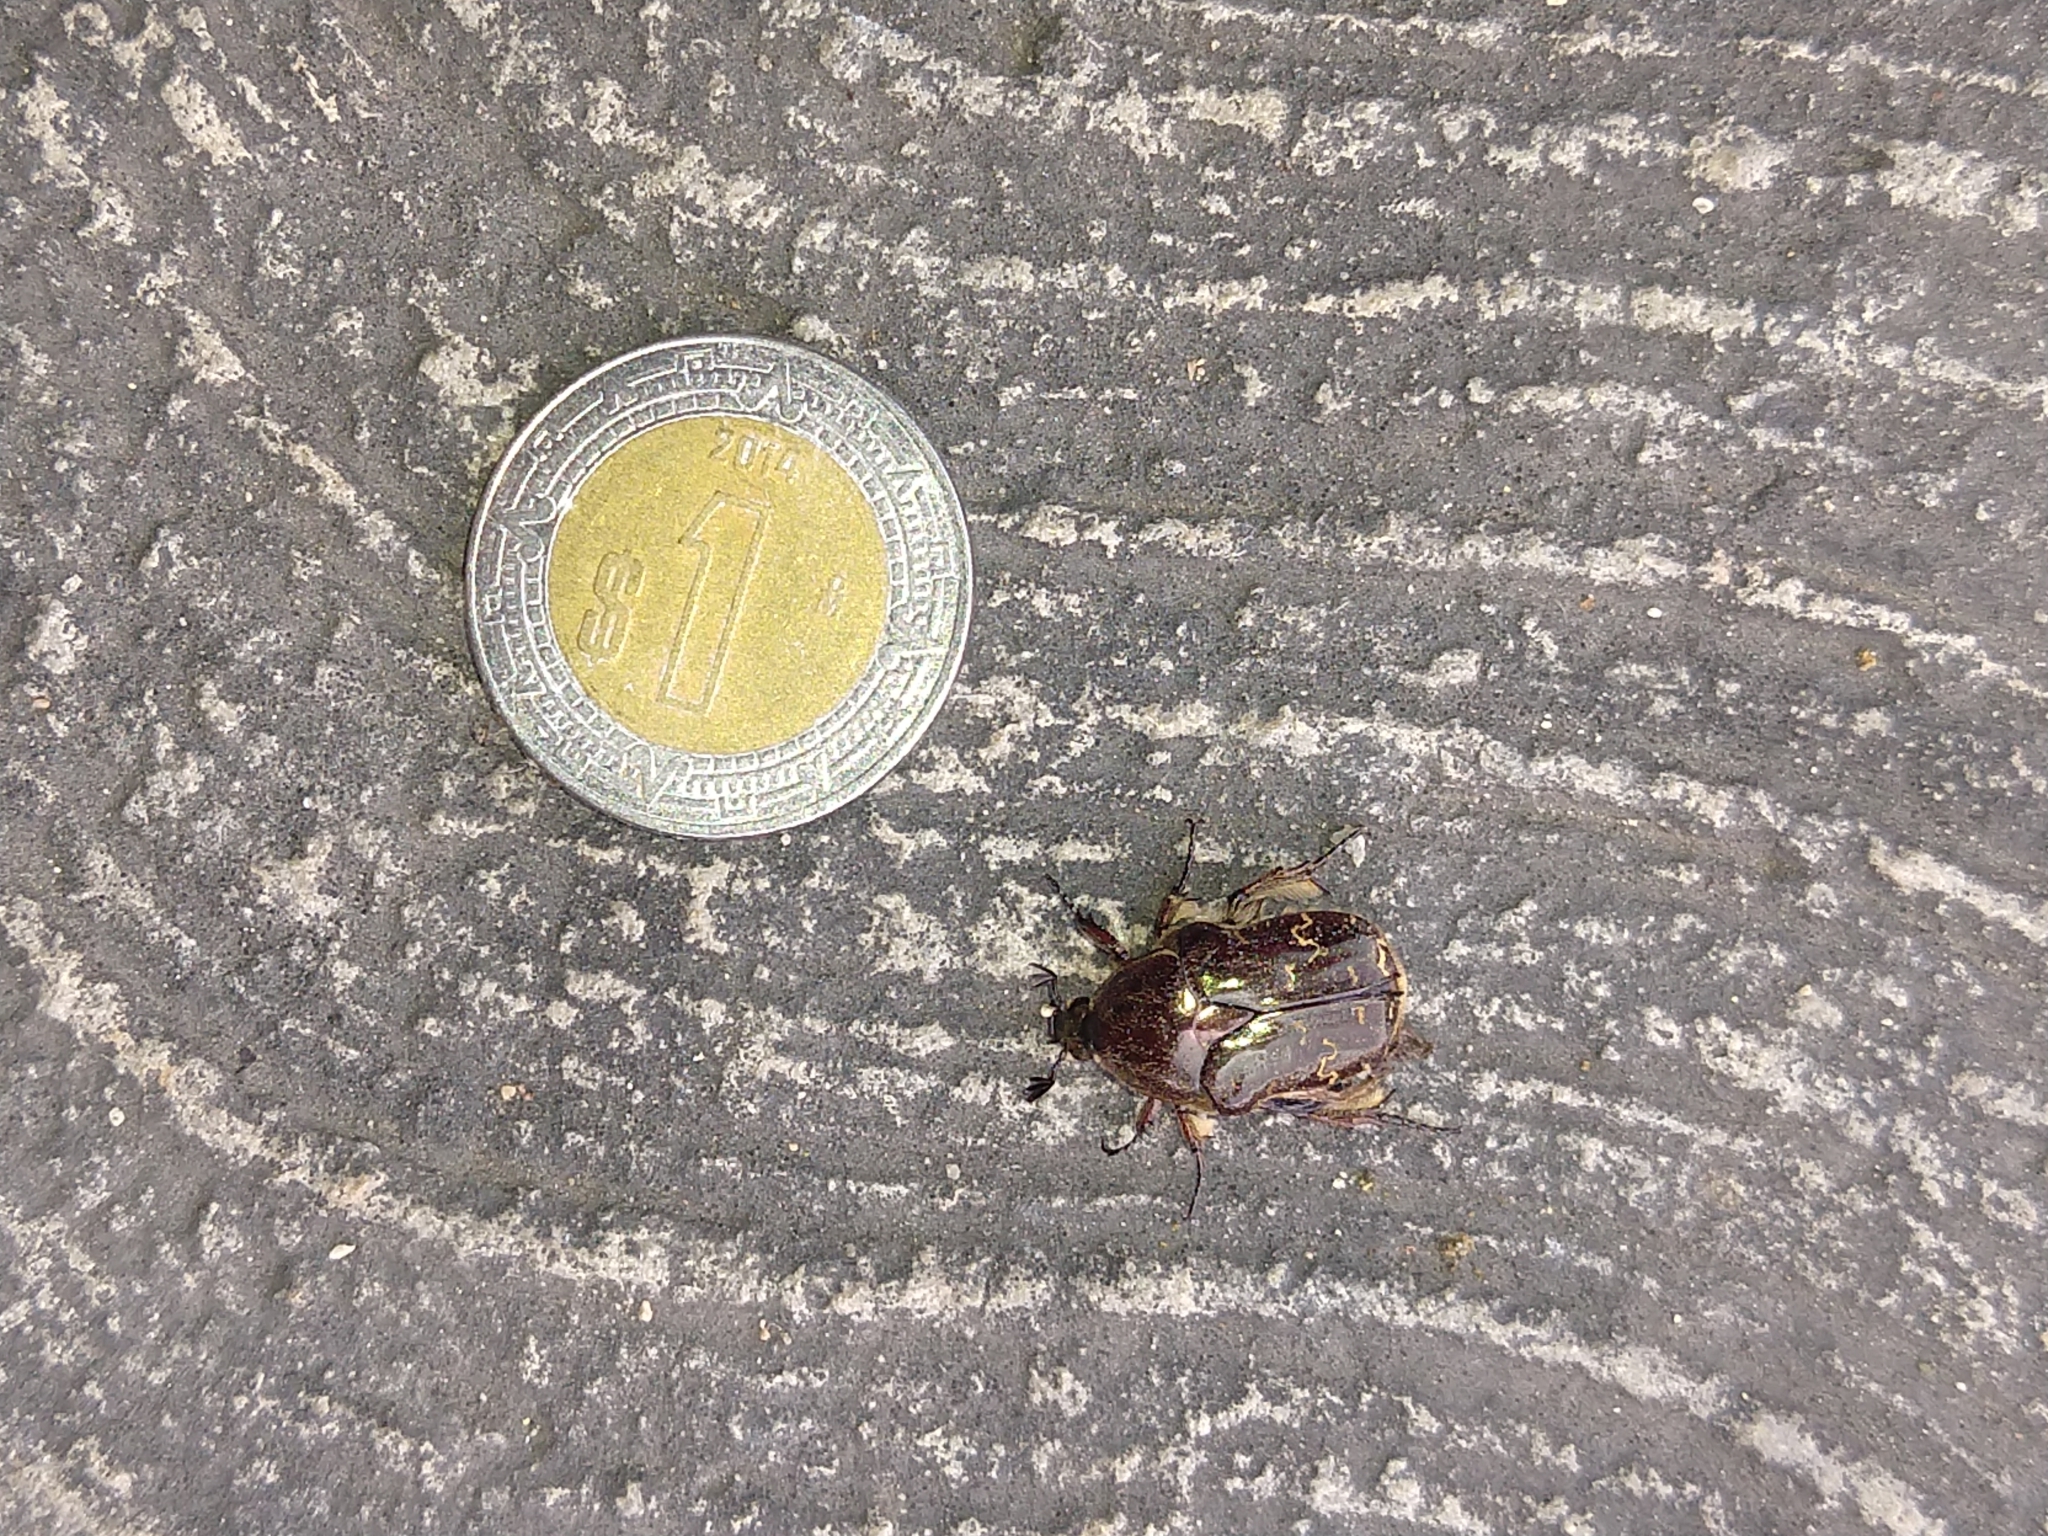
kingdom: Animalia
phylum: Arthropoda
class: Insecta
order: Coleoptera
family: Scarabaeidae
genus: Euphoria
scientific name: Euphoria leucographa
